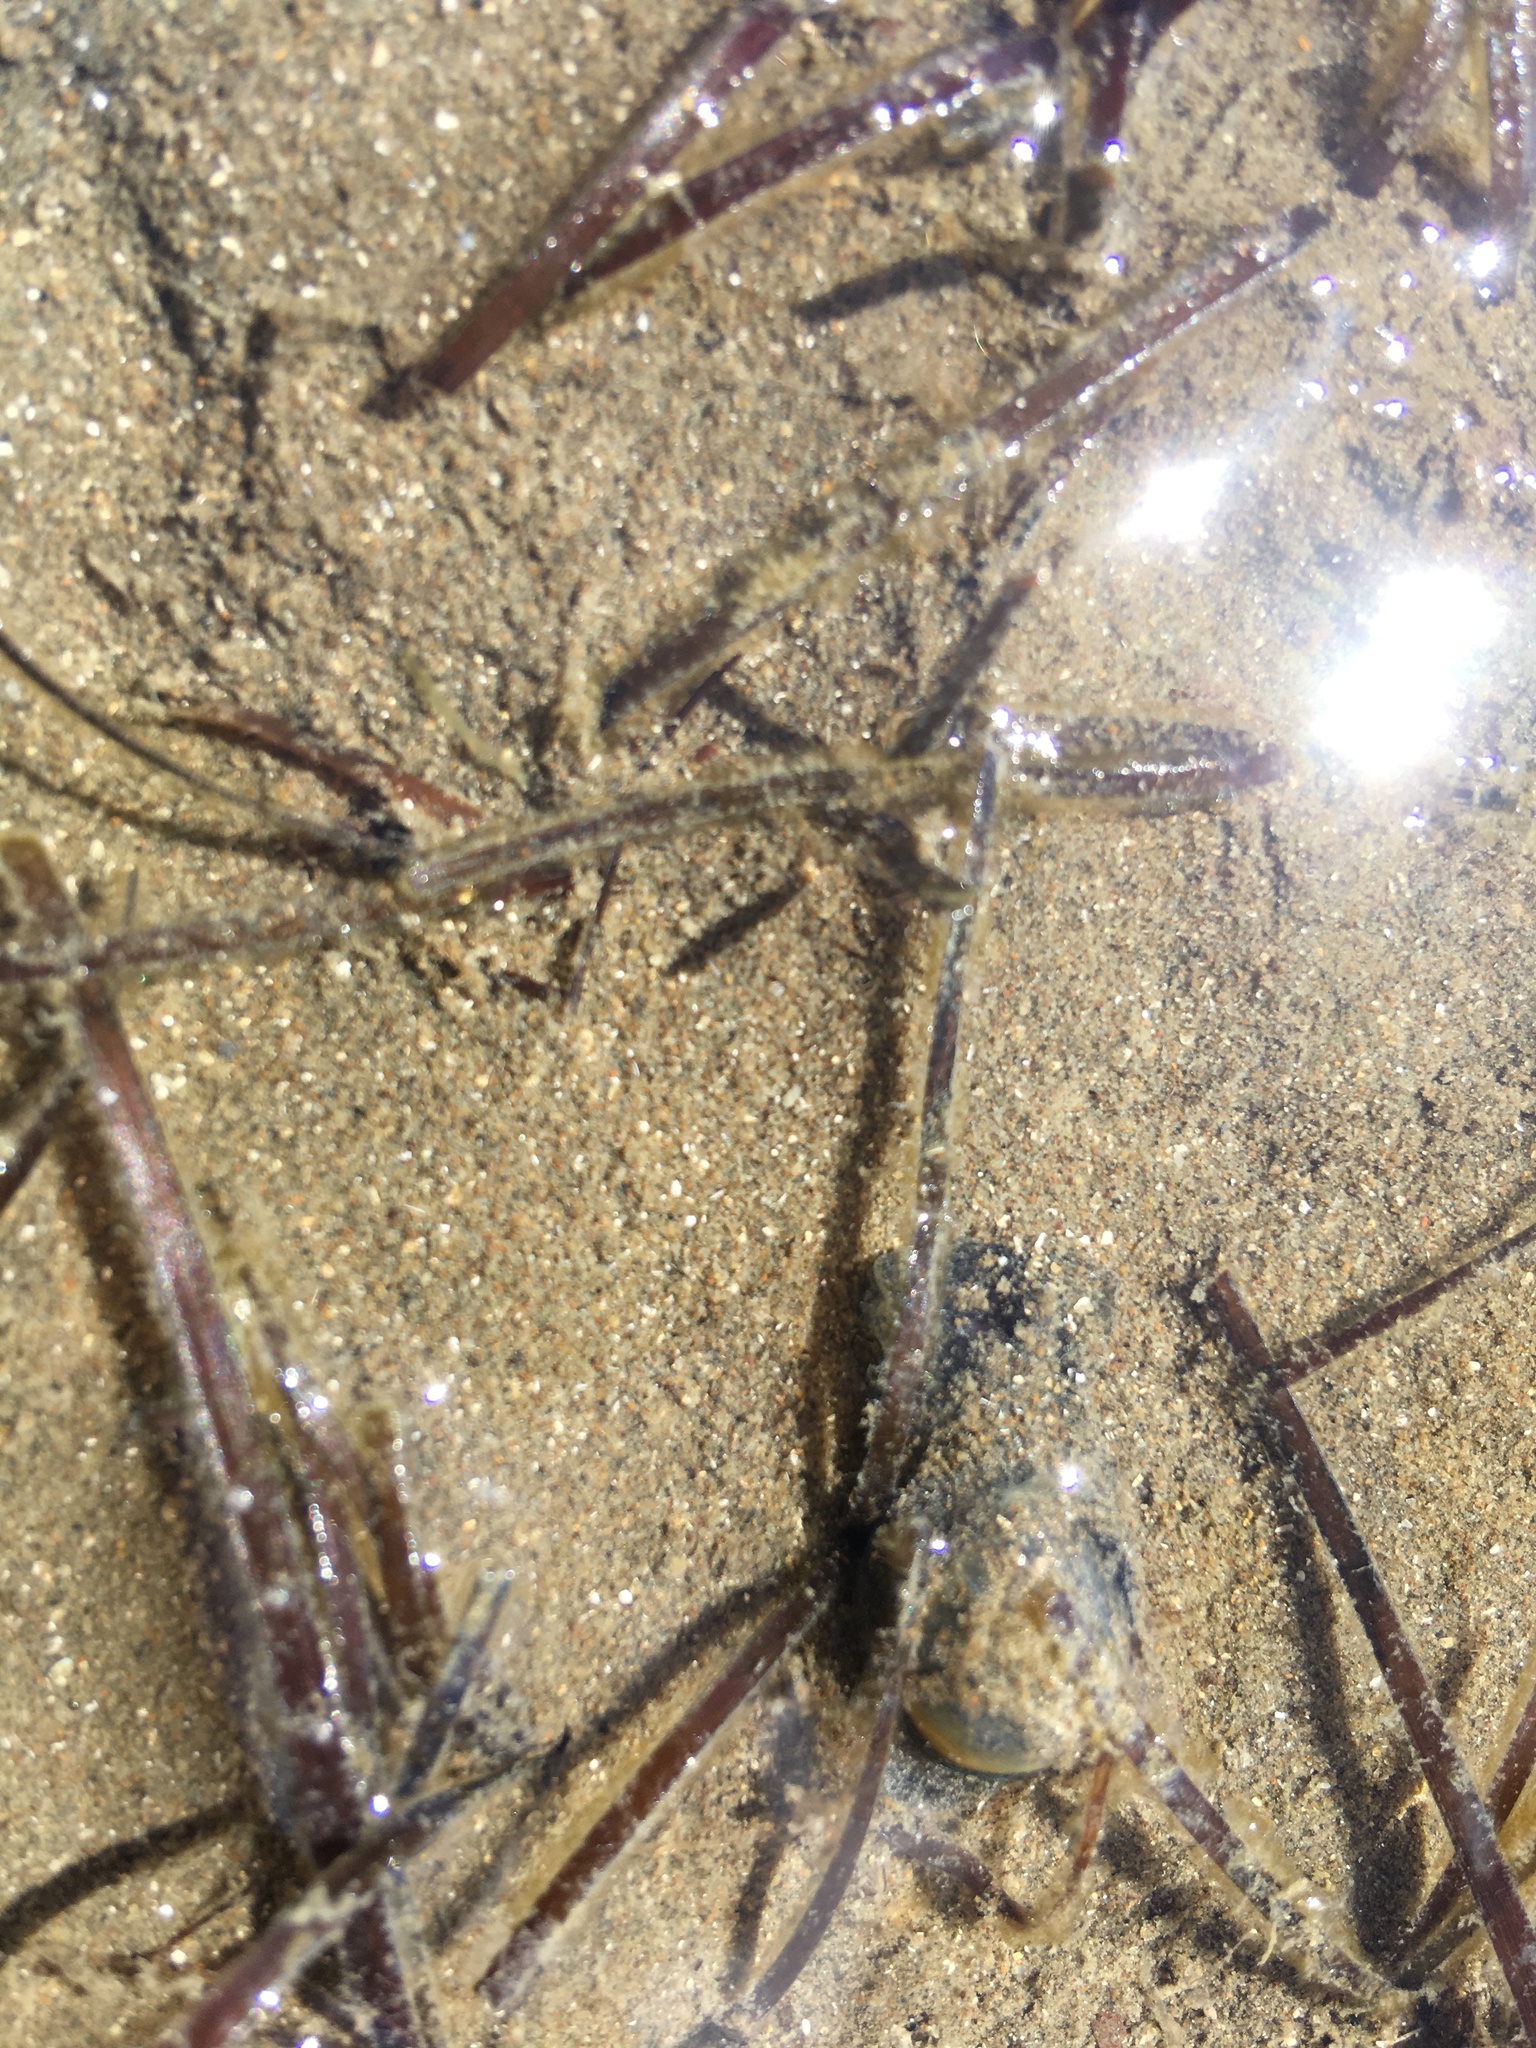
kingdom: Animalia
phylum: Mollusca
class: Gastropoda
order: Cephalaspidea
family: Haminoeidae
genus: Papawera
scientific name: Papawera zelandiae
